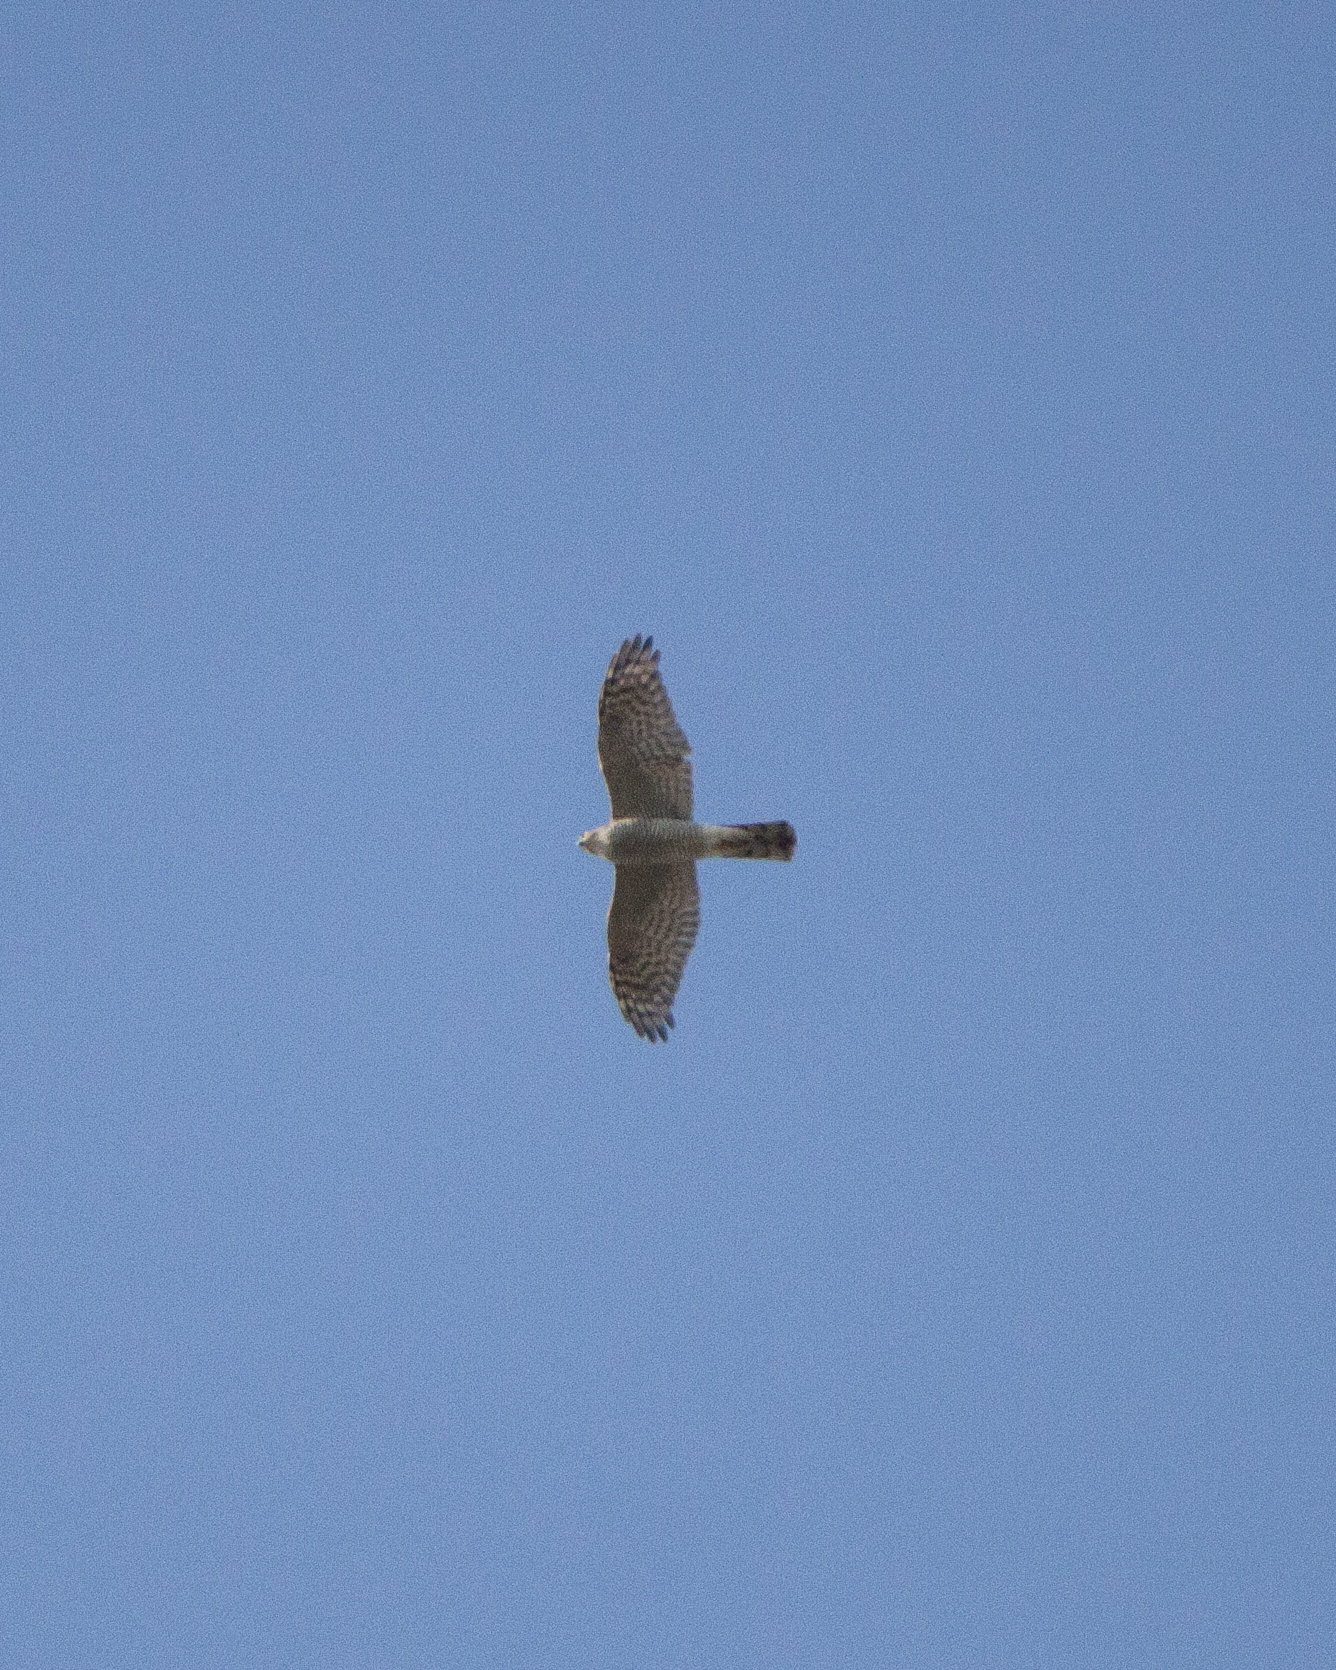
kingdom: Animalia
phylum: Chordata
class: Aves
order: Accipitriformes
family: Accipitridae
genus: Accipiter
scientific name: Accipiter nisus
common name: Eurasian sparrowhawk
